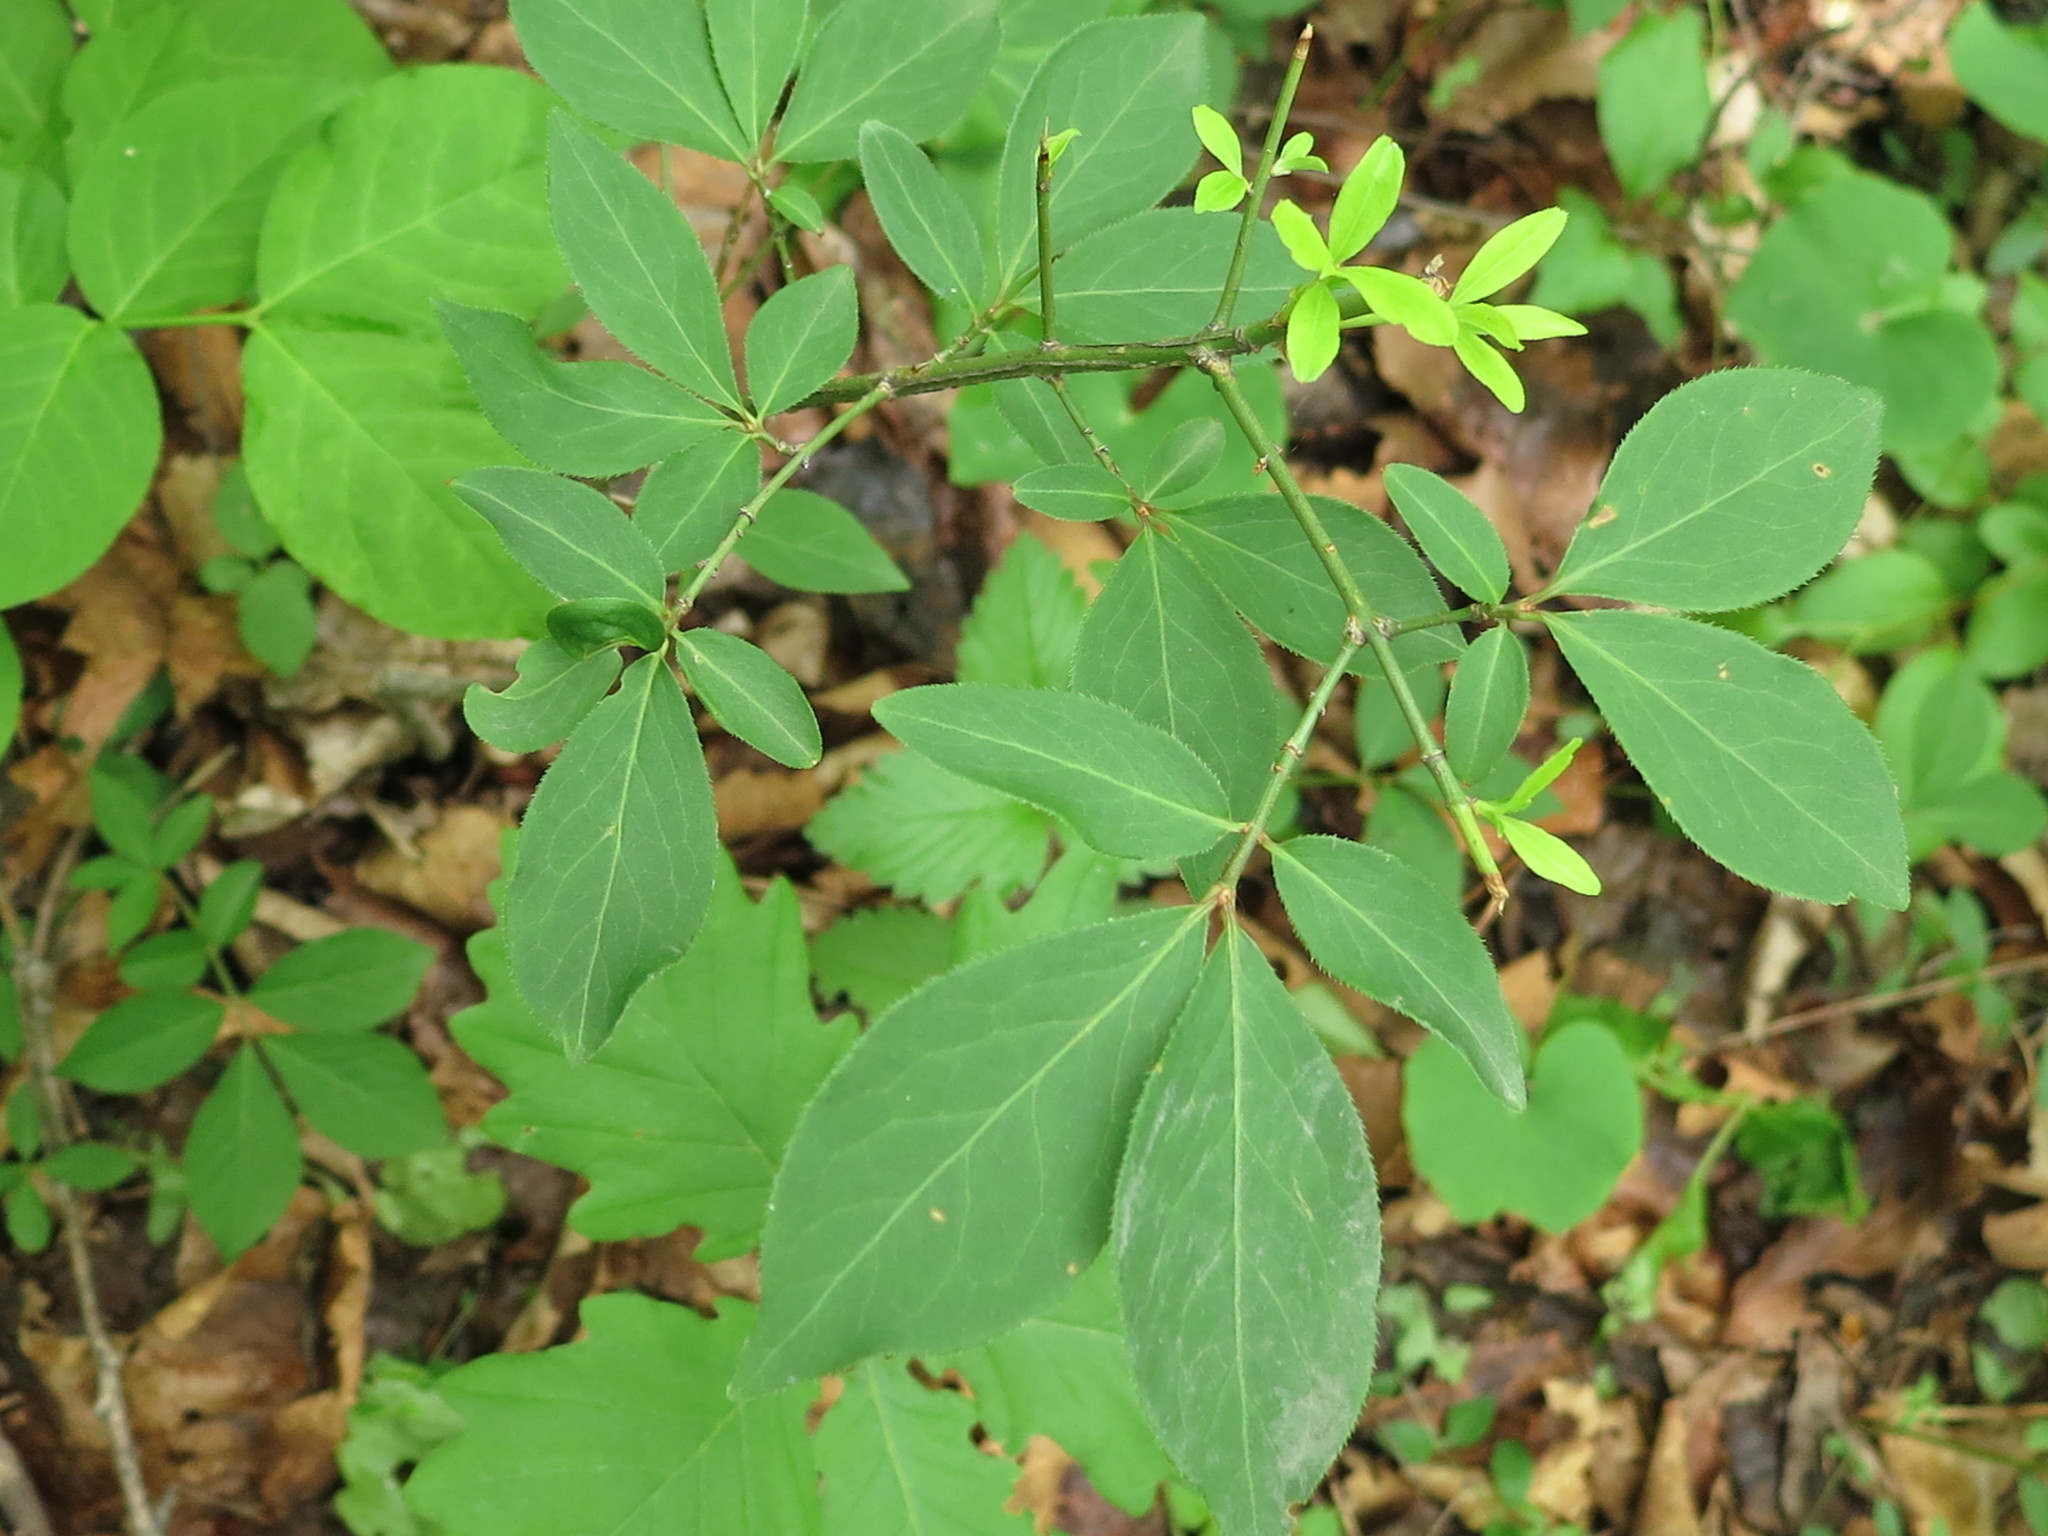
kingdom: Plantae
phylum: Tracheophyta
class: Magnoliopsida
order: Celastrales
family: Celastraceae
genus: Euonymus
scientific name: Euonymus alatus
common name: Winged euonymus
